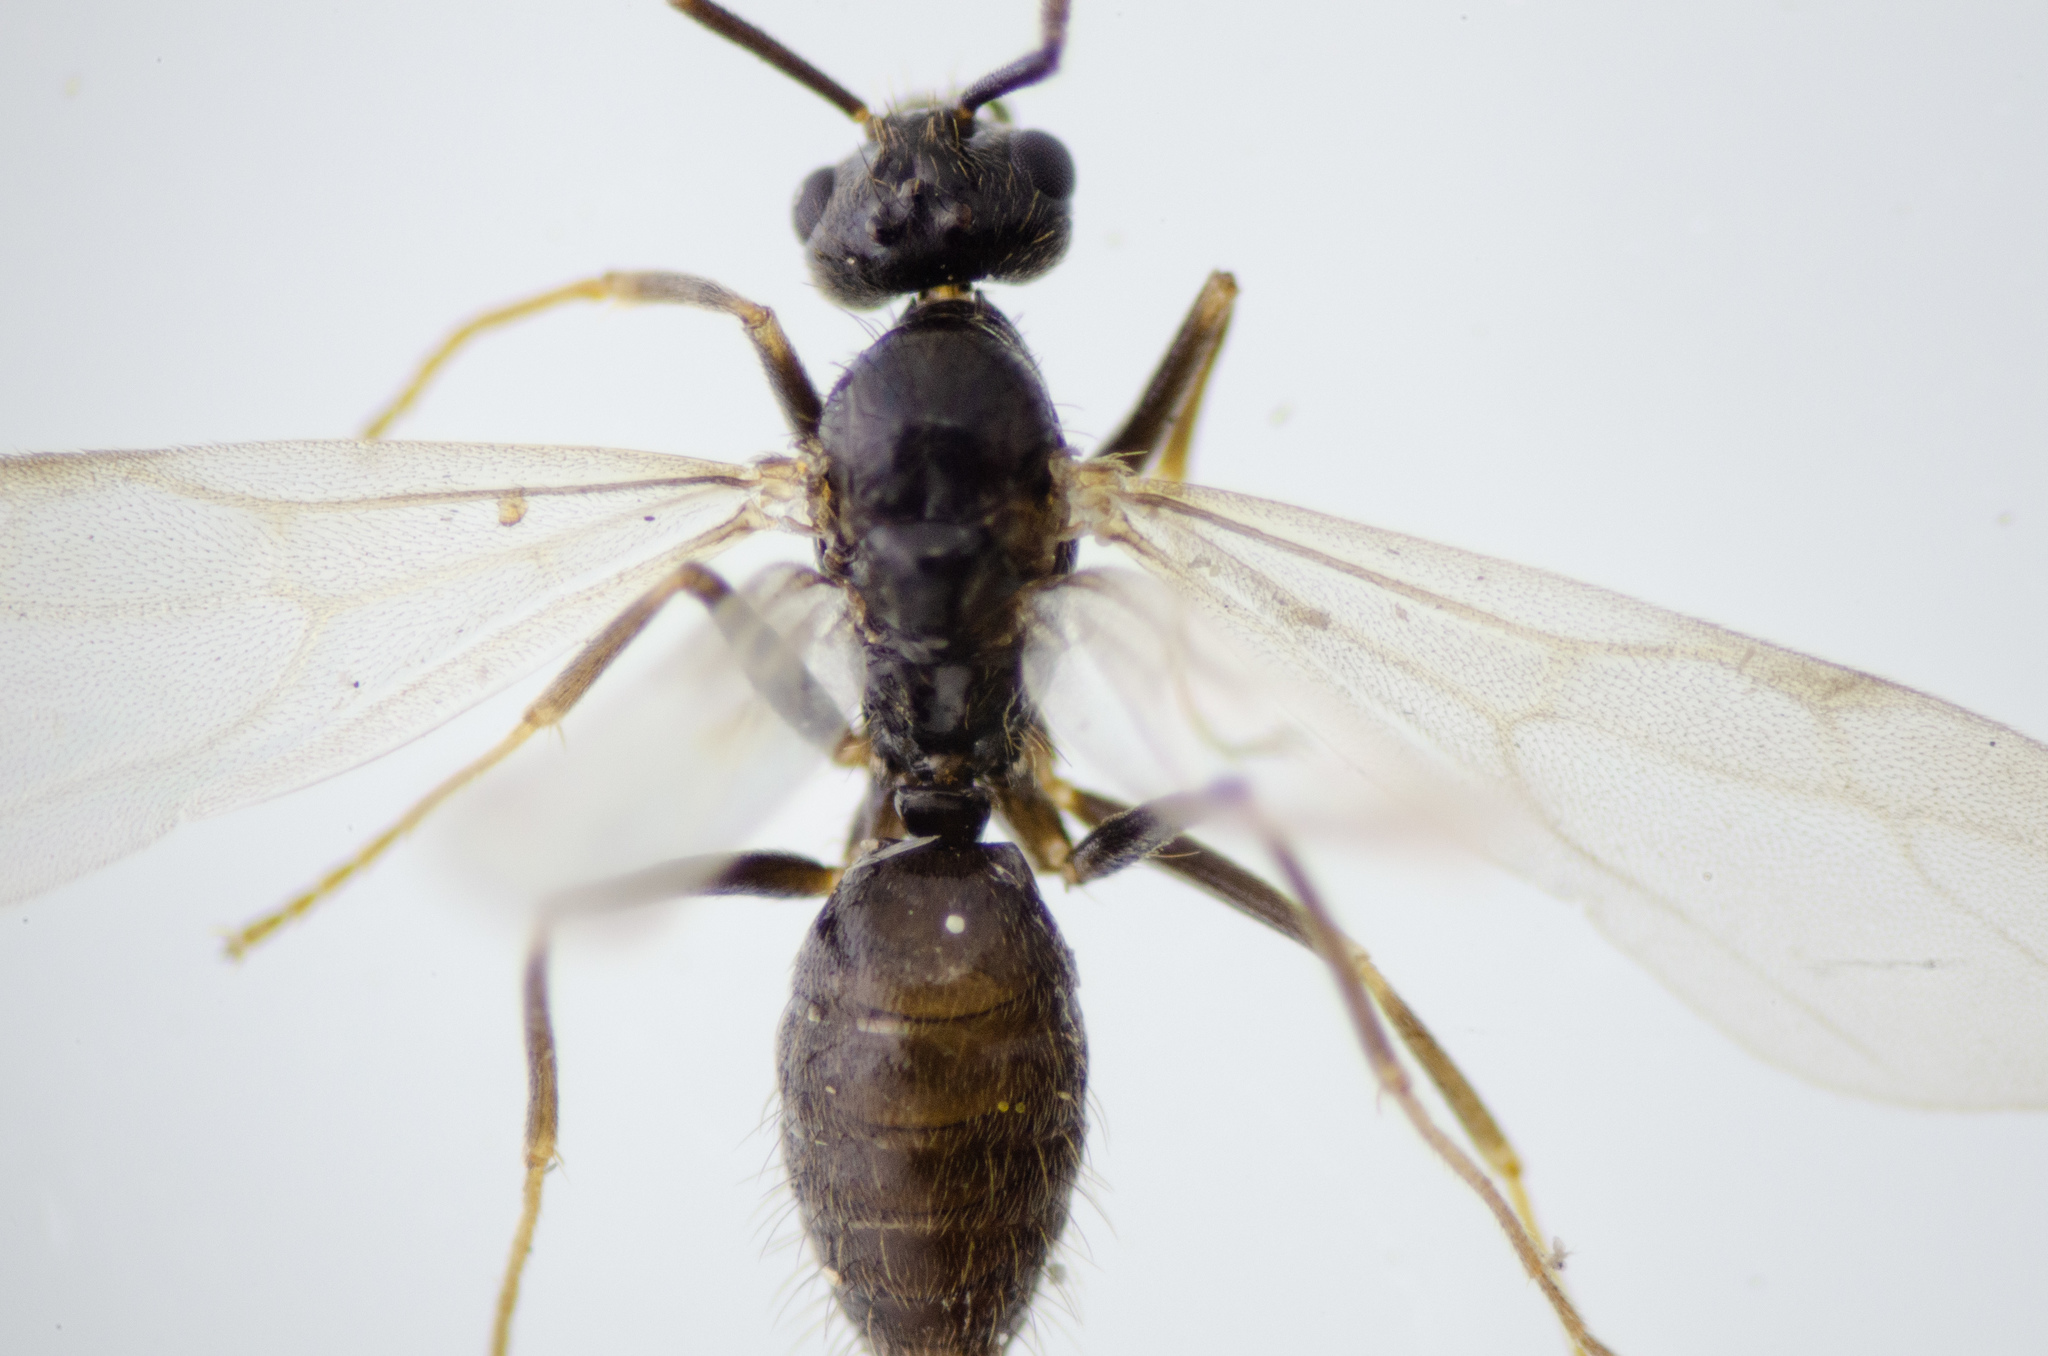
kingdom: Animalia
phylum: Arthropoda
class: Insecta
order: Hymenoptera
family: Formicidae
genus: Prenolepis
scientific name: Prenolepis imparis
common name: Small honey ant
